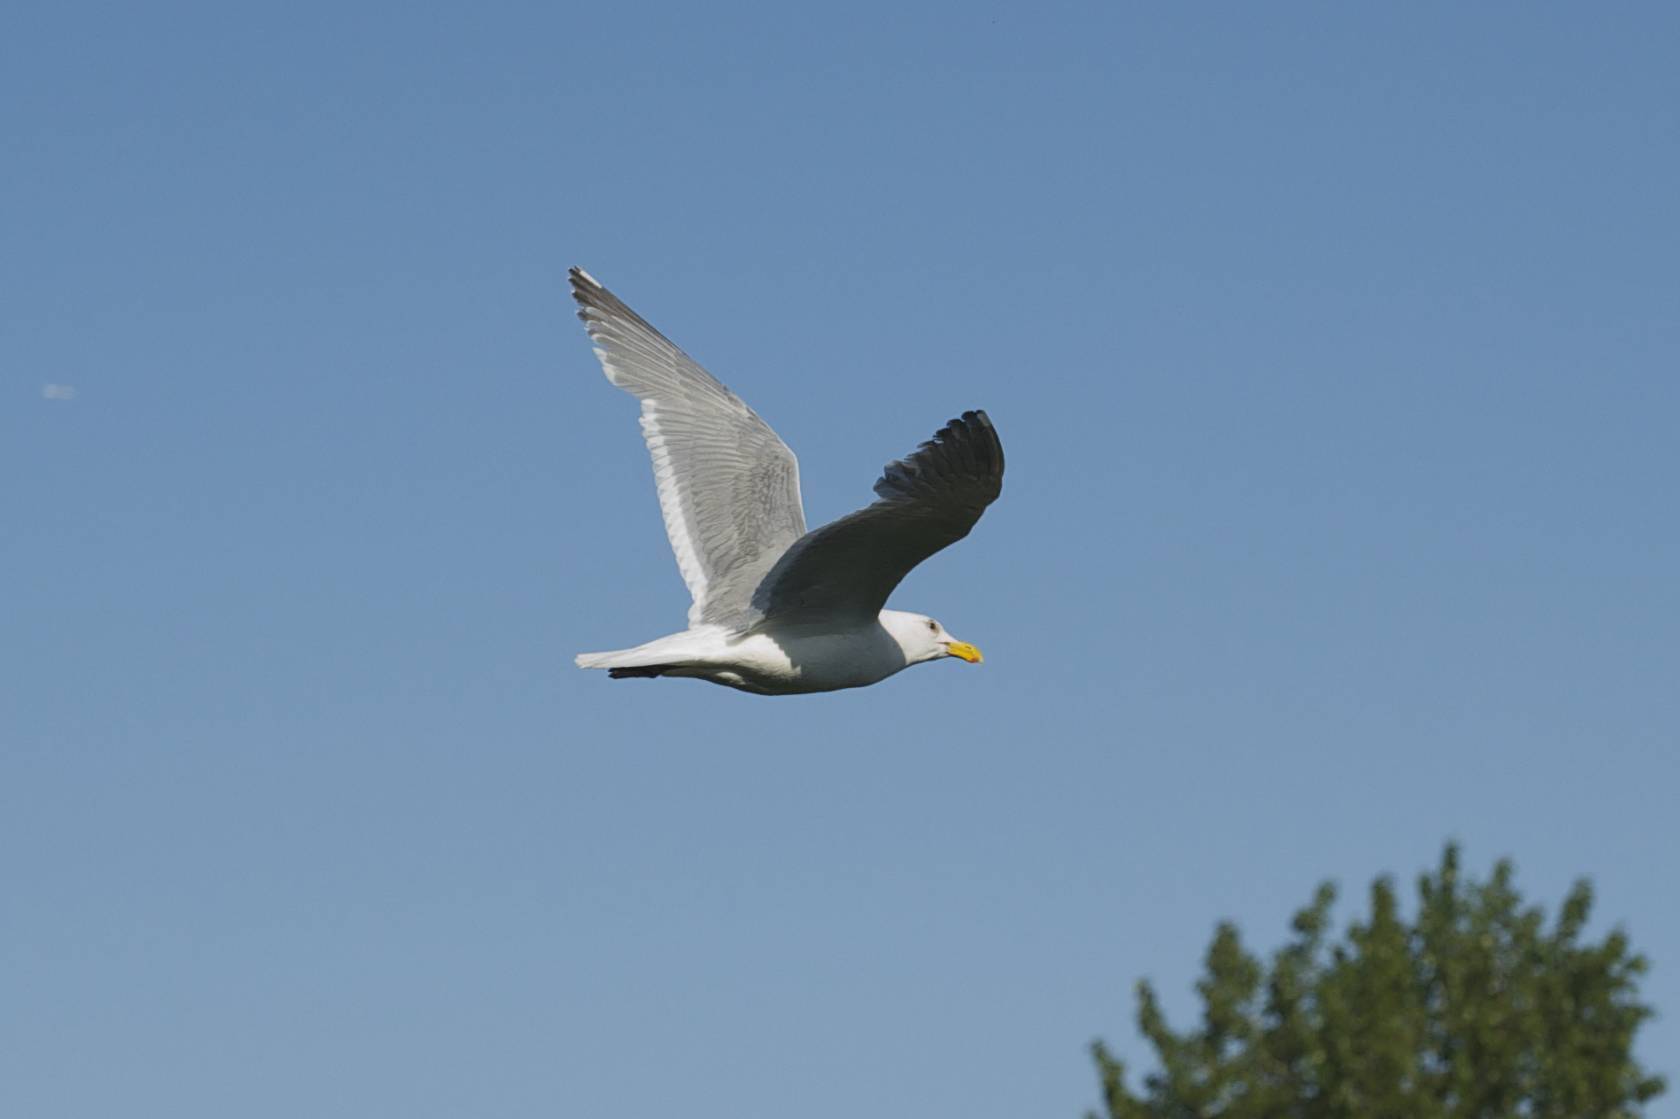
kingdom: Animalia
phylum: Chordata
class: Aves
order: Charadriiformes
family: Laridae
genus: Larus
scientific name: Larus
